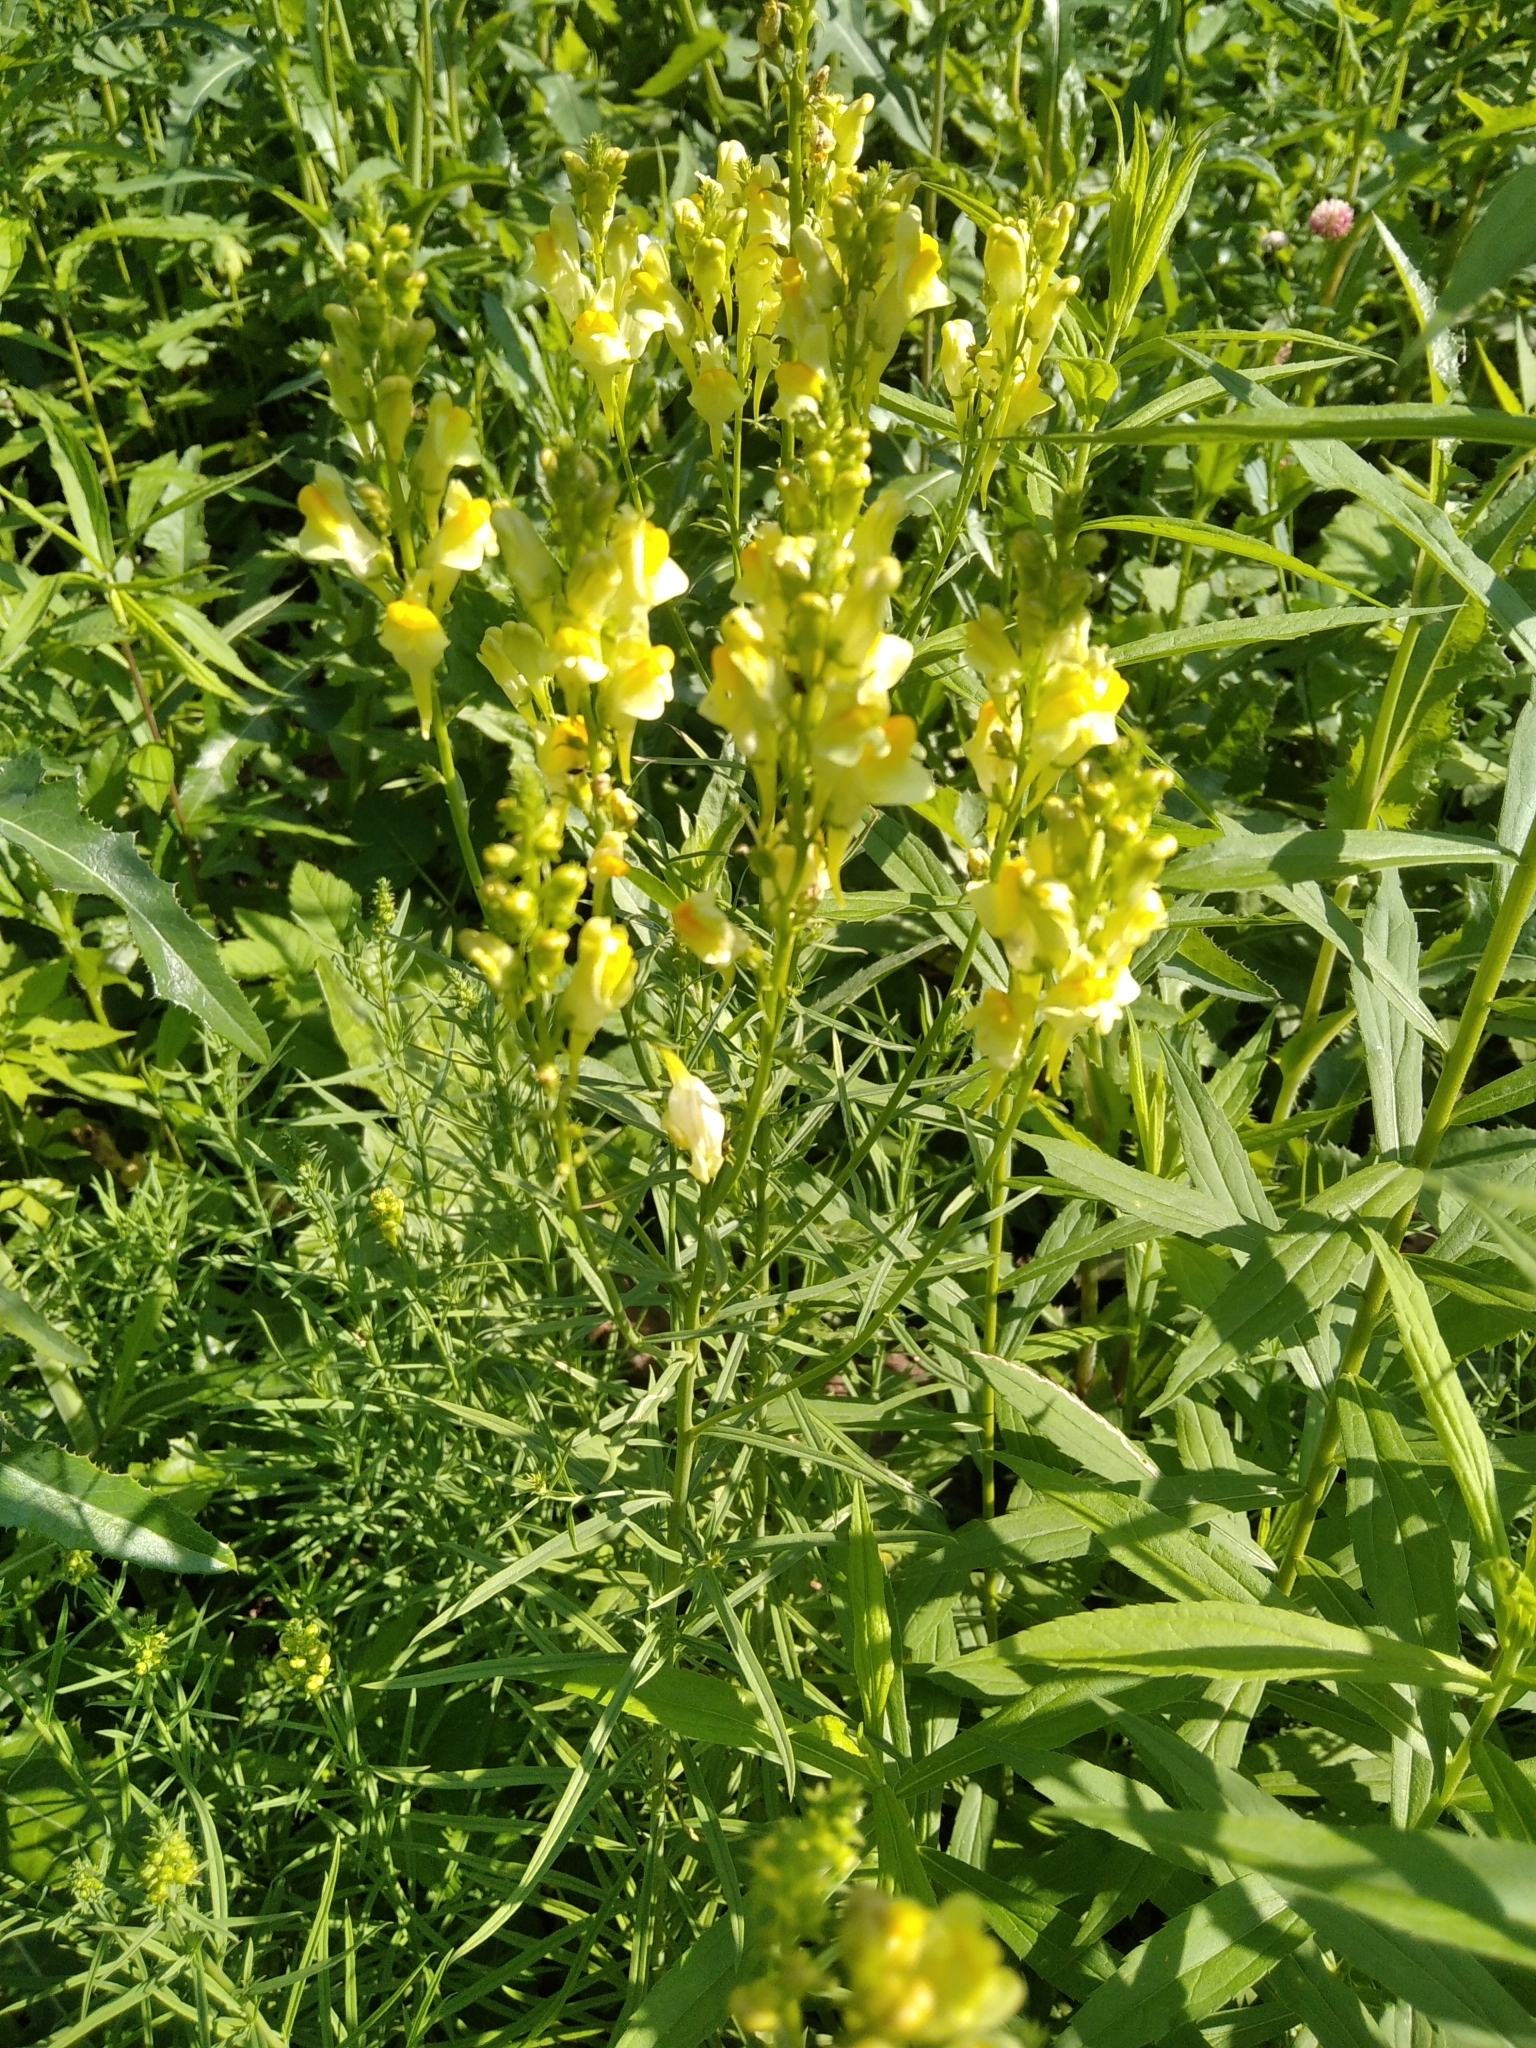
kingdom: Plantae
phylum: Tracheophyta
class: Magnoliopsida
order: Lamiales
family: Plantaginaceae
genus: Linaria
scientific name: Linaria vulgaris
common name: Butter and eggs
